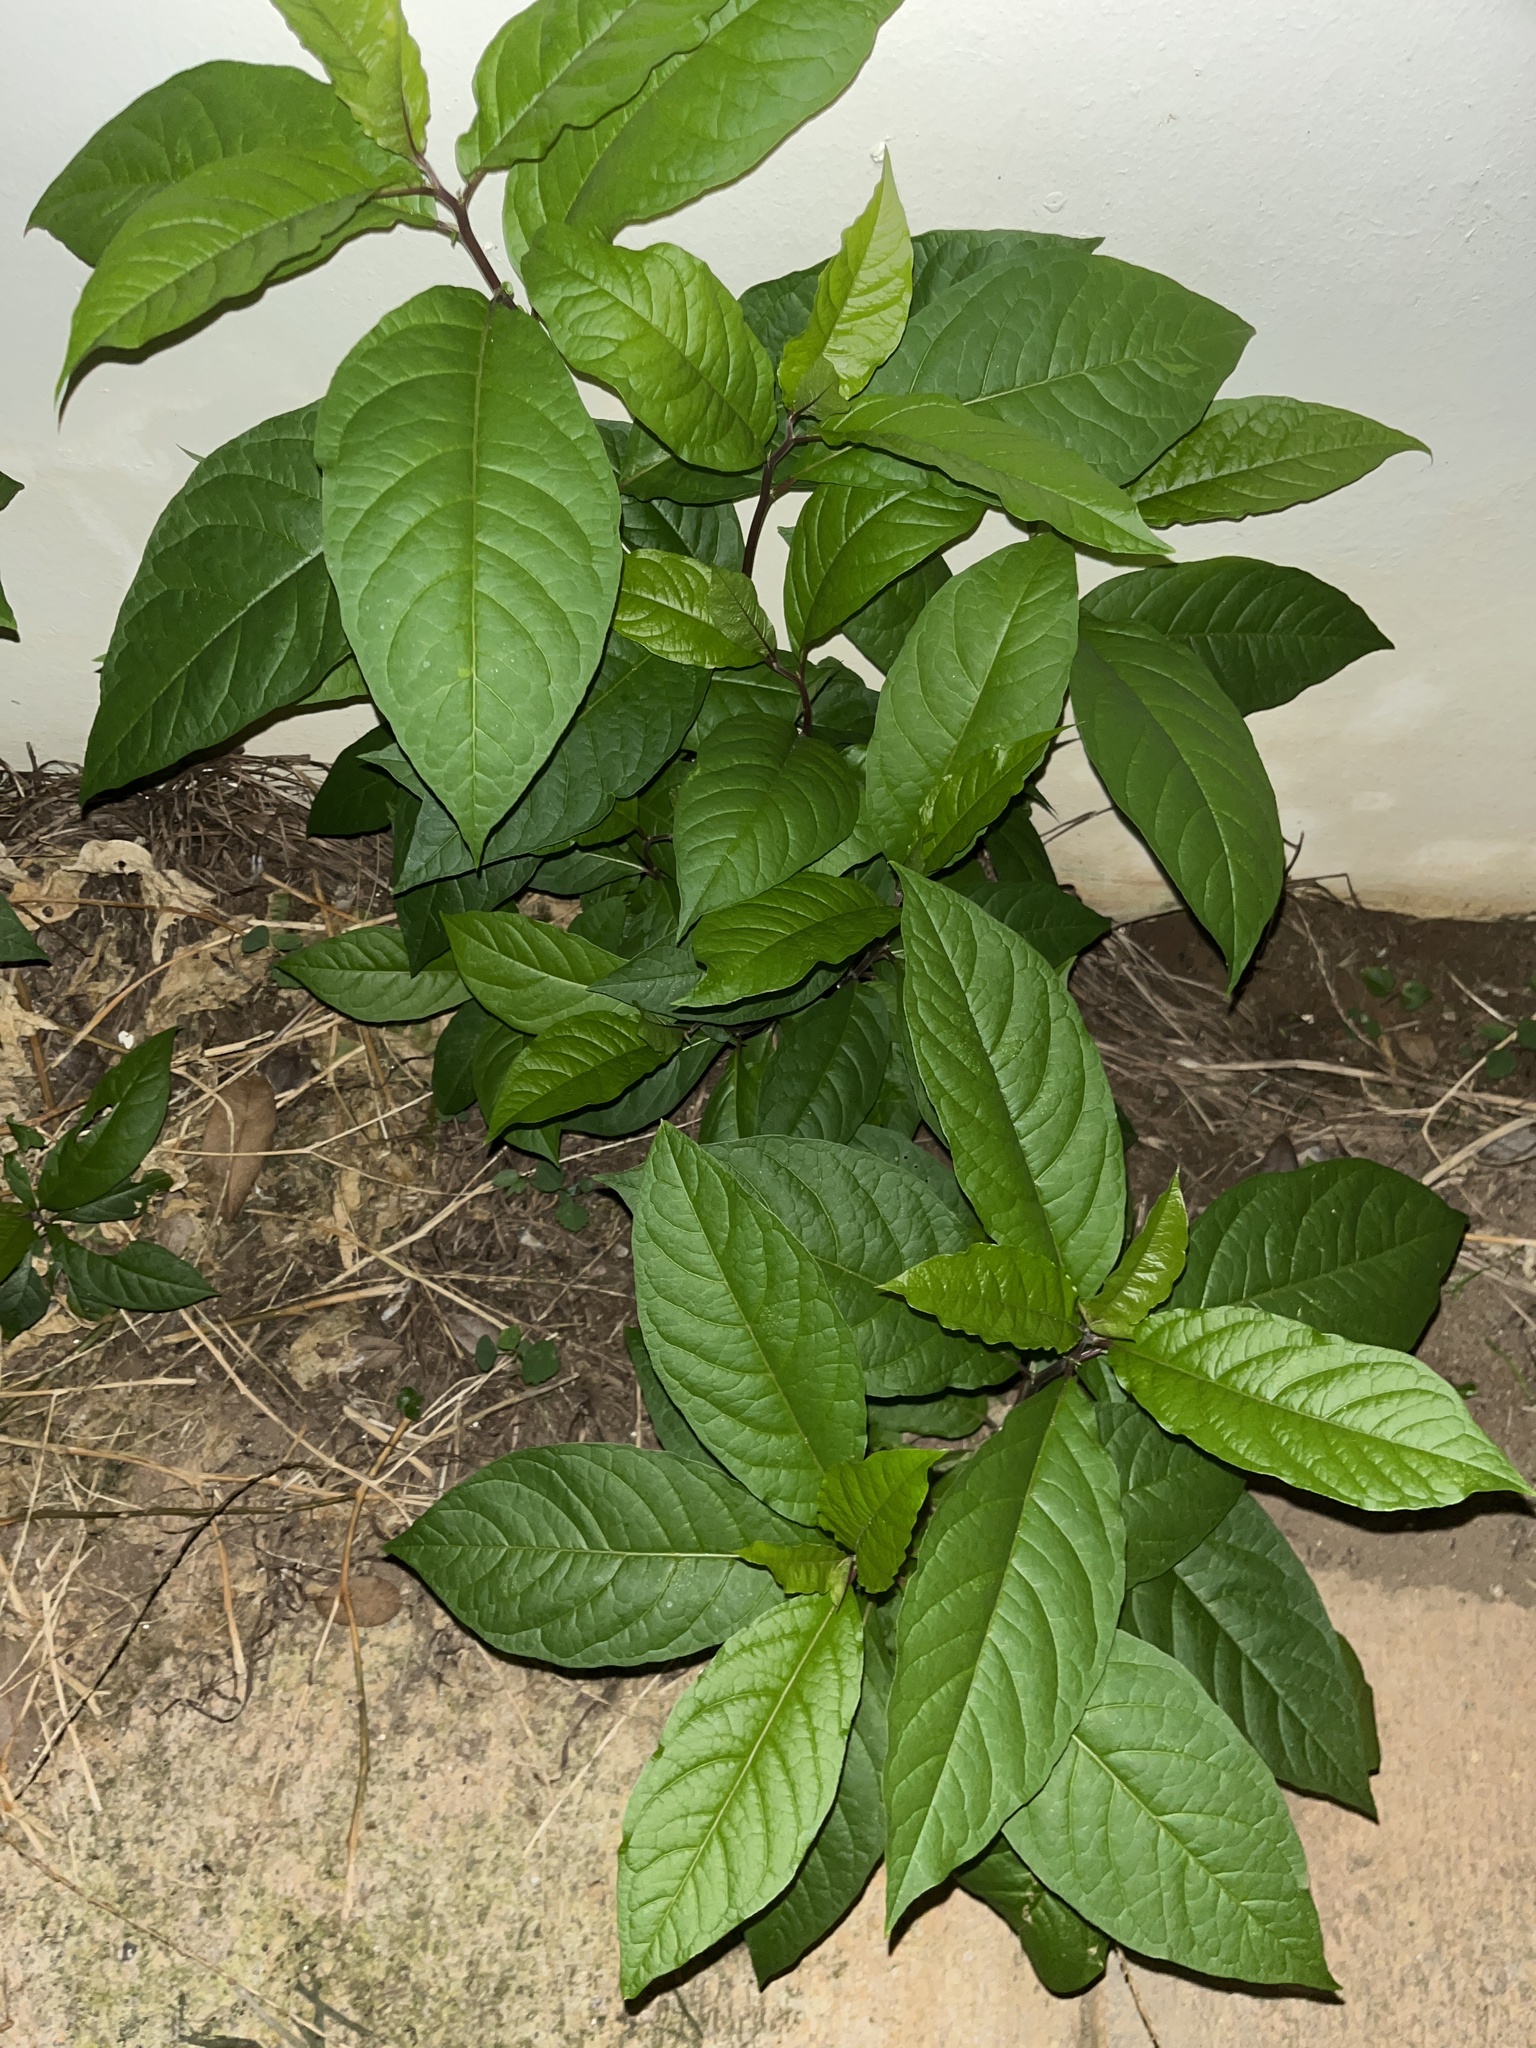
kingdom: Plantae
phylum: Tracheophyta
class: Magnoliopsida
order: Caryophyllales
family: Phytolaccaceae
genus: Petiveria
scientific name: Petiveria alliacea
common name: Garlicweed
